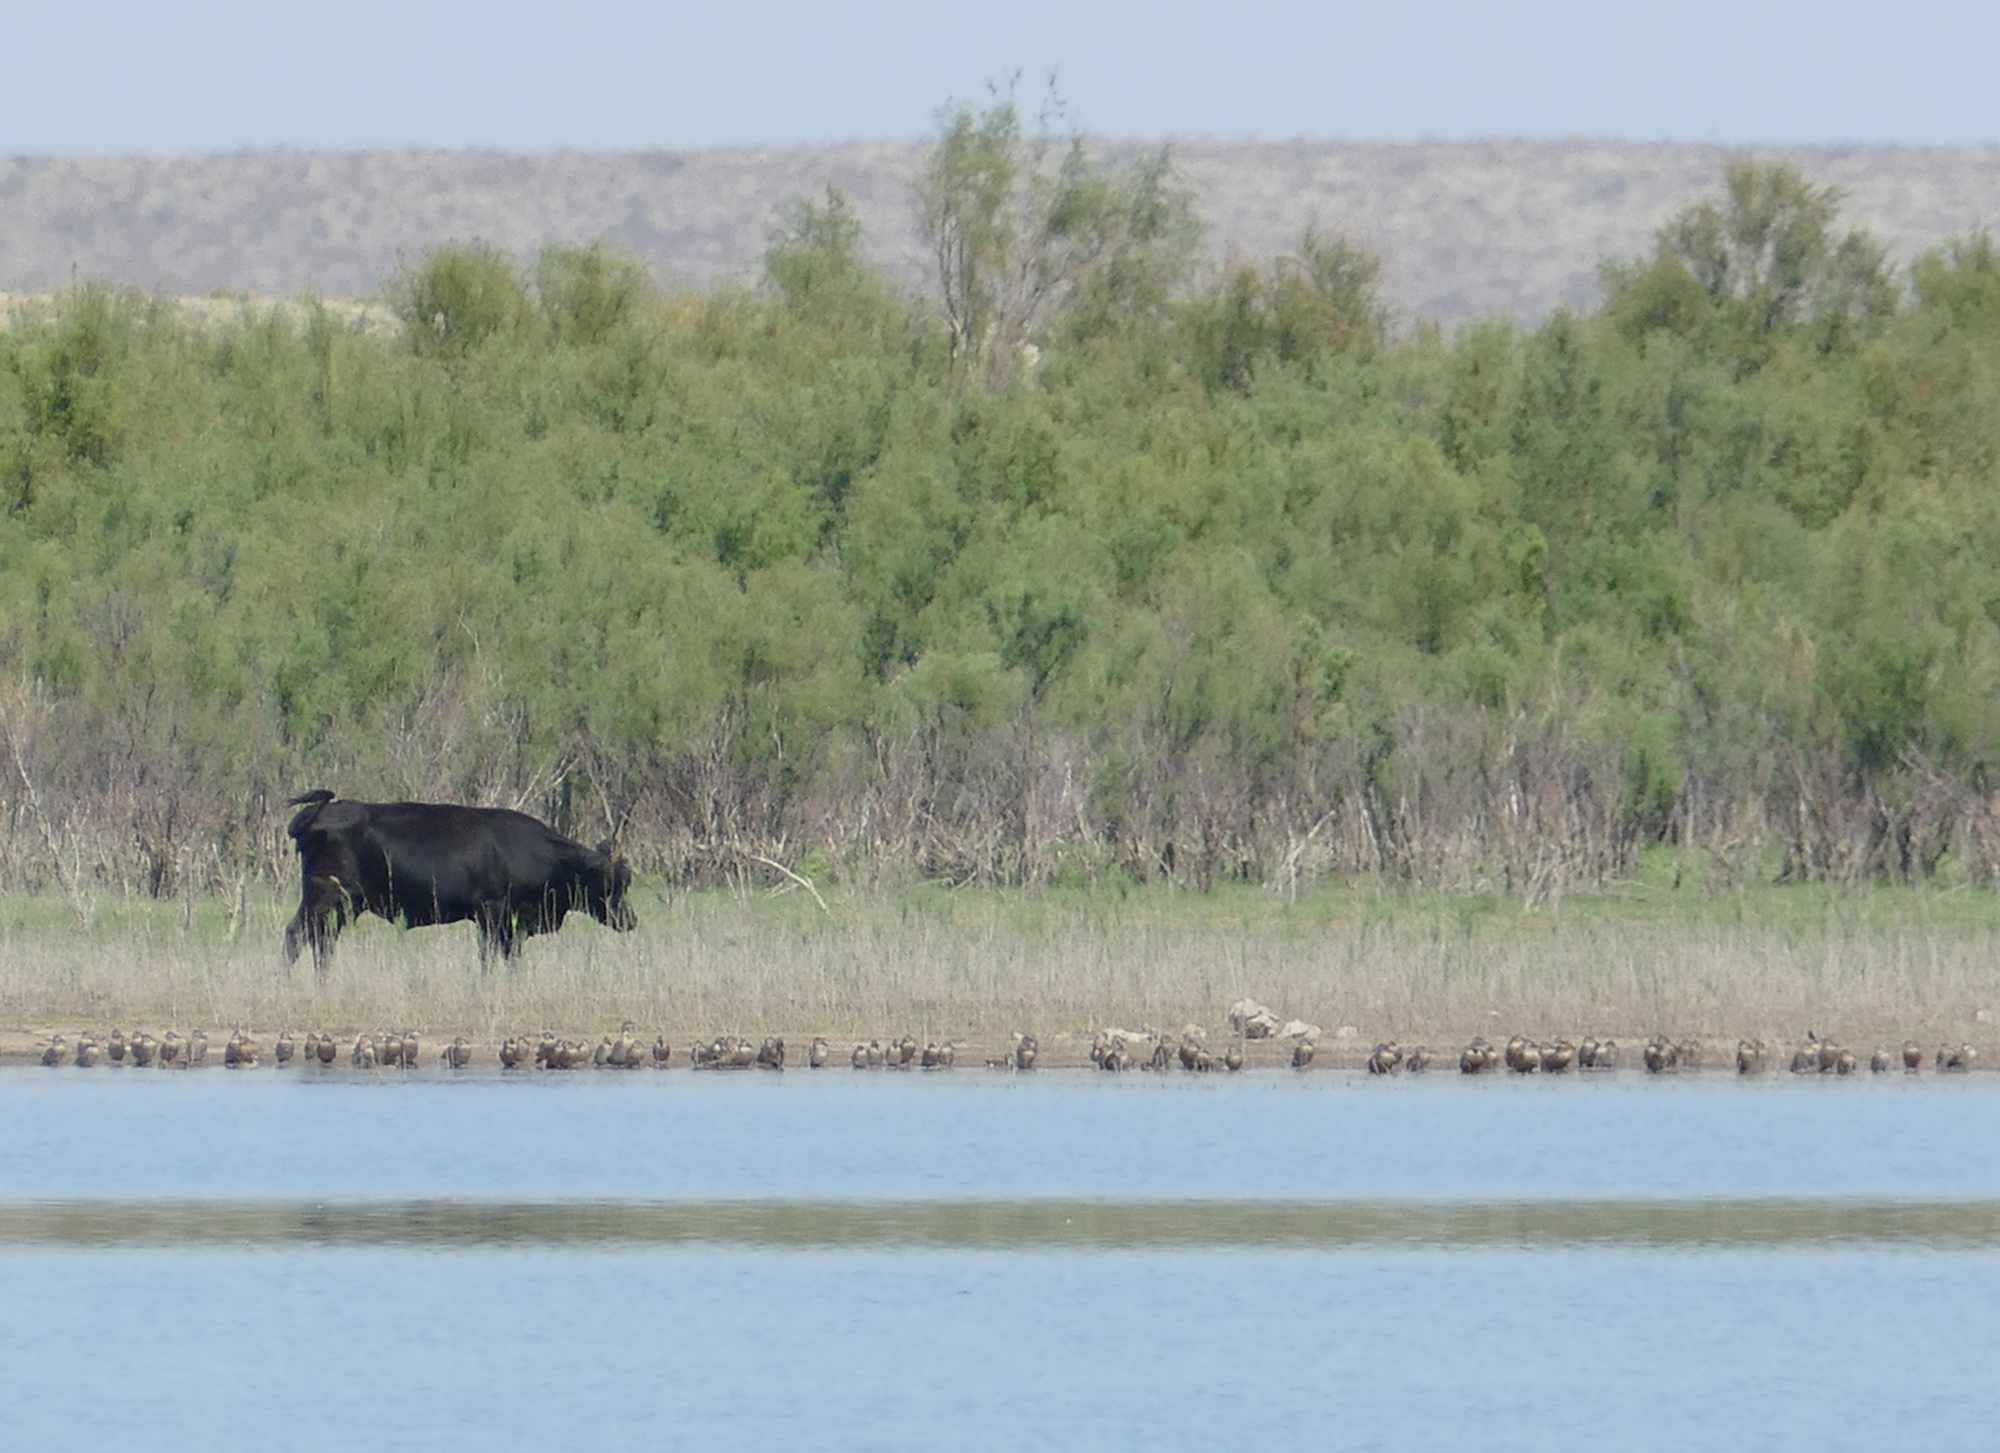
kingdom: Animalia
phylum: Chordata
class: Mammalia
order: Artiodactyla
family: Bovidae
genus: Bos
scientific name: Bos taurus
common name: Domesticated cattle
